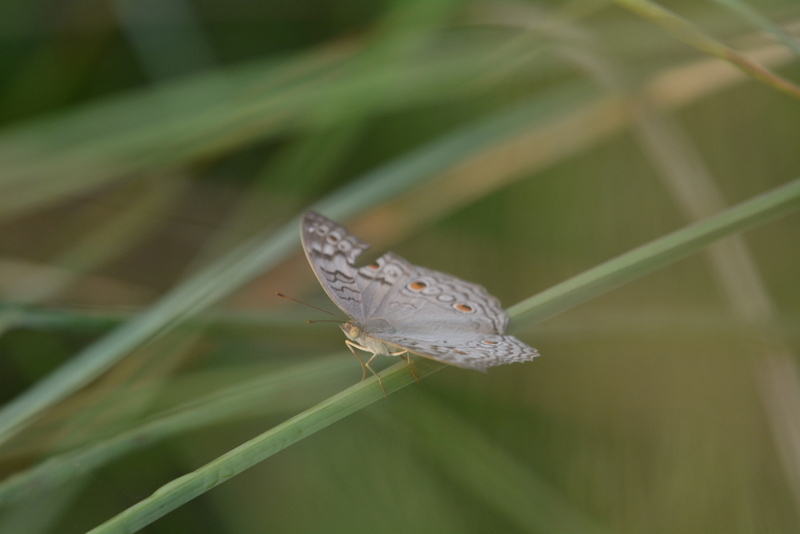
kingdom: Animalia
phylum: Arthropoda
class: Insecta
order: Lepidoptera
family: Nymphalidae
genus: Junonia
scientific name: Junonia atlites
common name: Grey pansy
